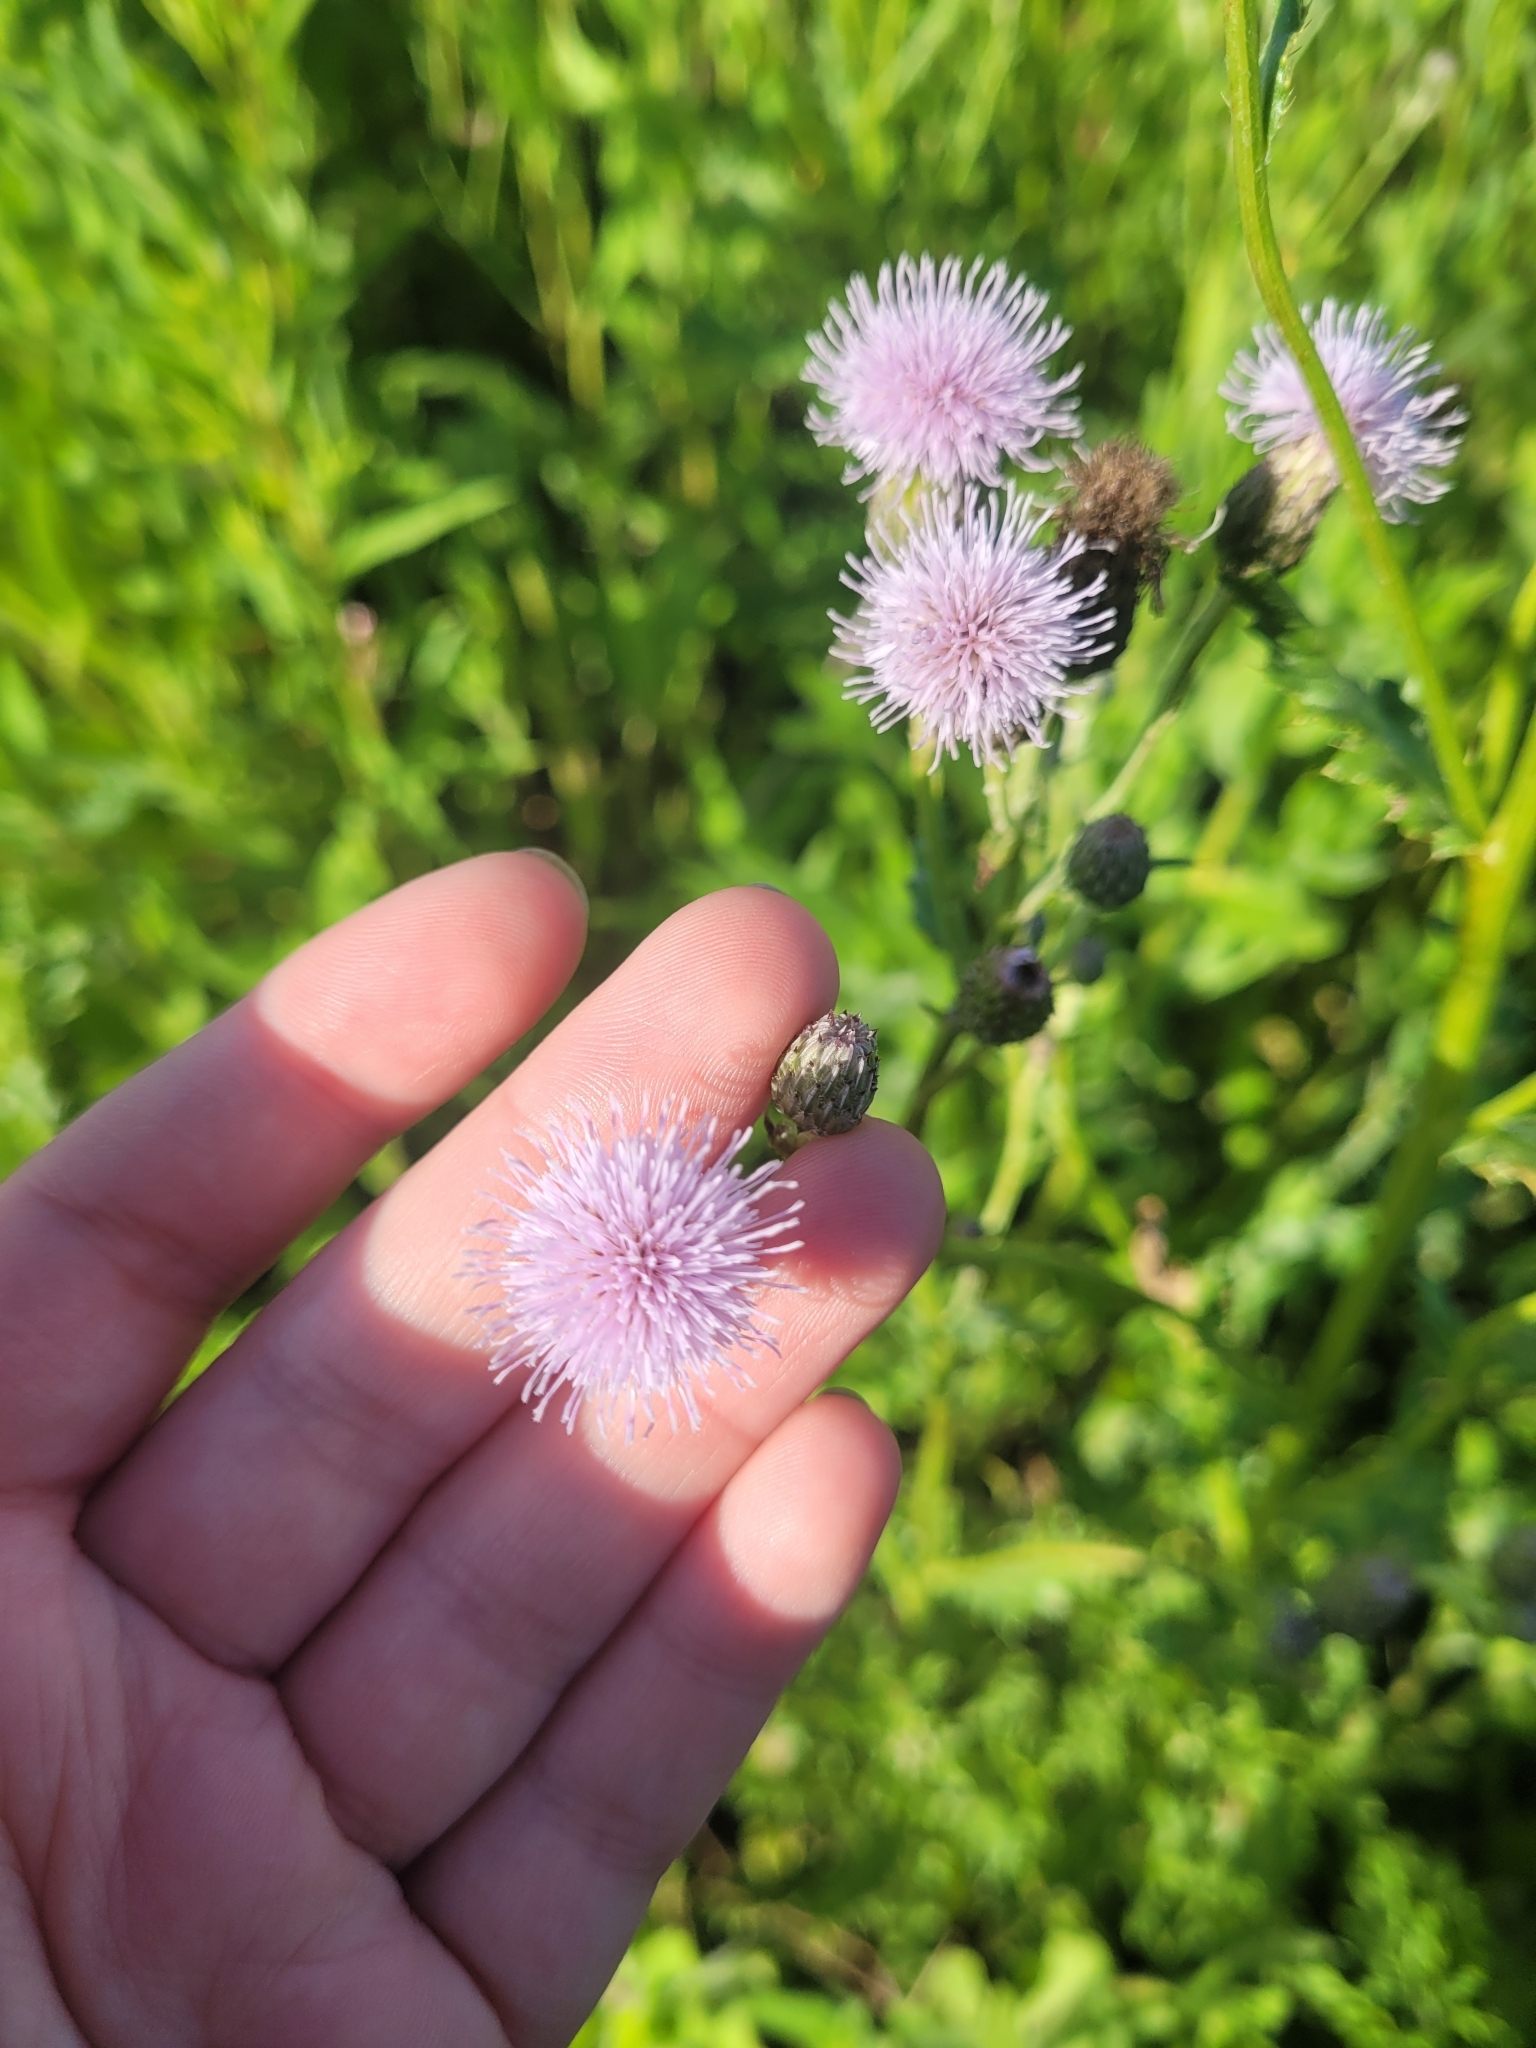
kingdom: Plantae
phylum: Tracheophyta
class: Magnoliopsida
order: Asterales
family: Asteraceae
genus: Cirsium
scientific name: Cirsium arvense
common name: Creeping thistle
